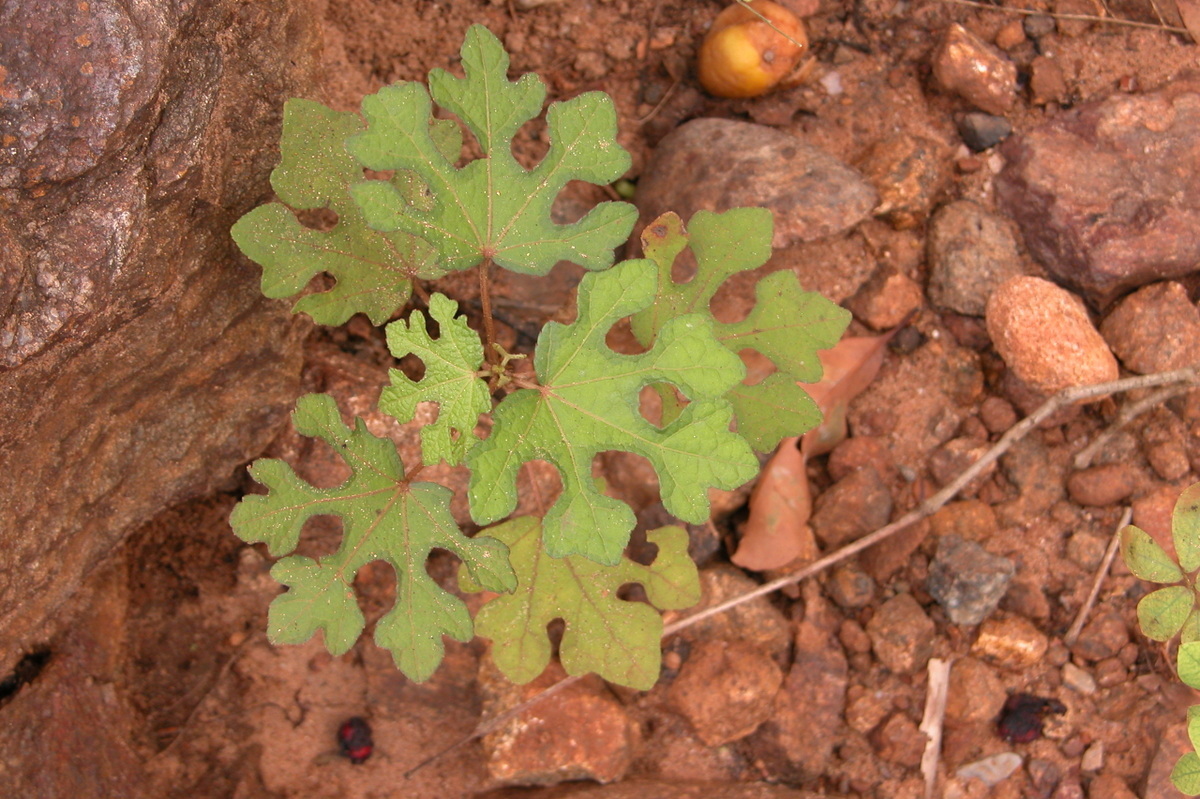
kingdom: Plantae
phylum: Tracheophyta
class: Magnoliopsida
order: Malvales
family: Malvaceae
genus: Urena
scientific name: Urena procumbens
